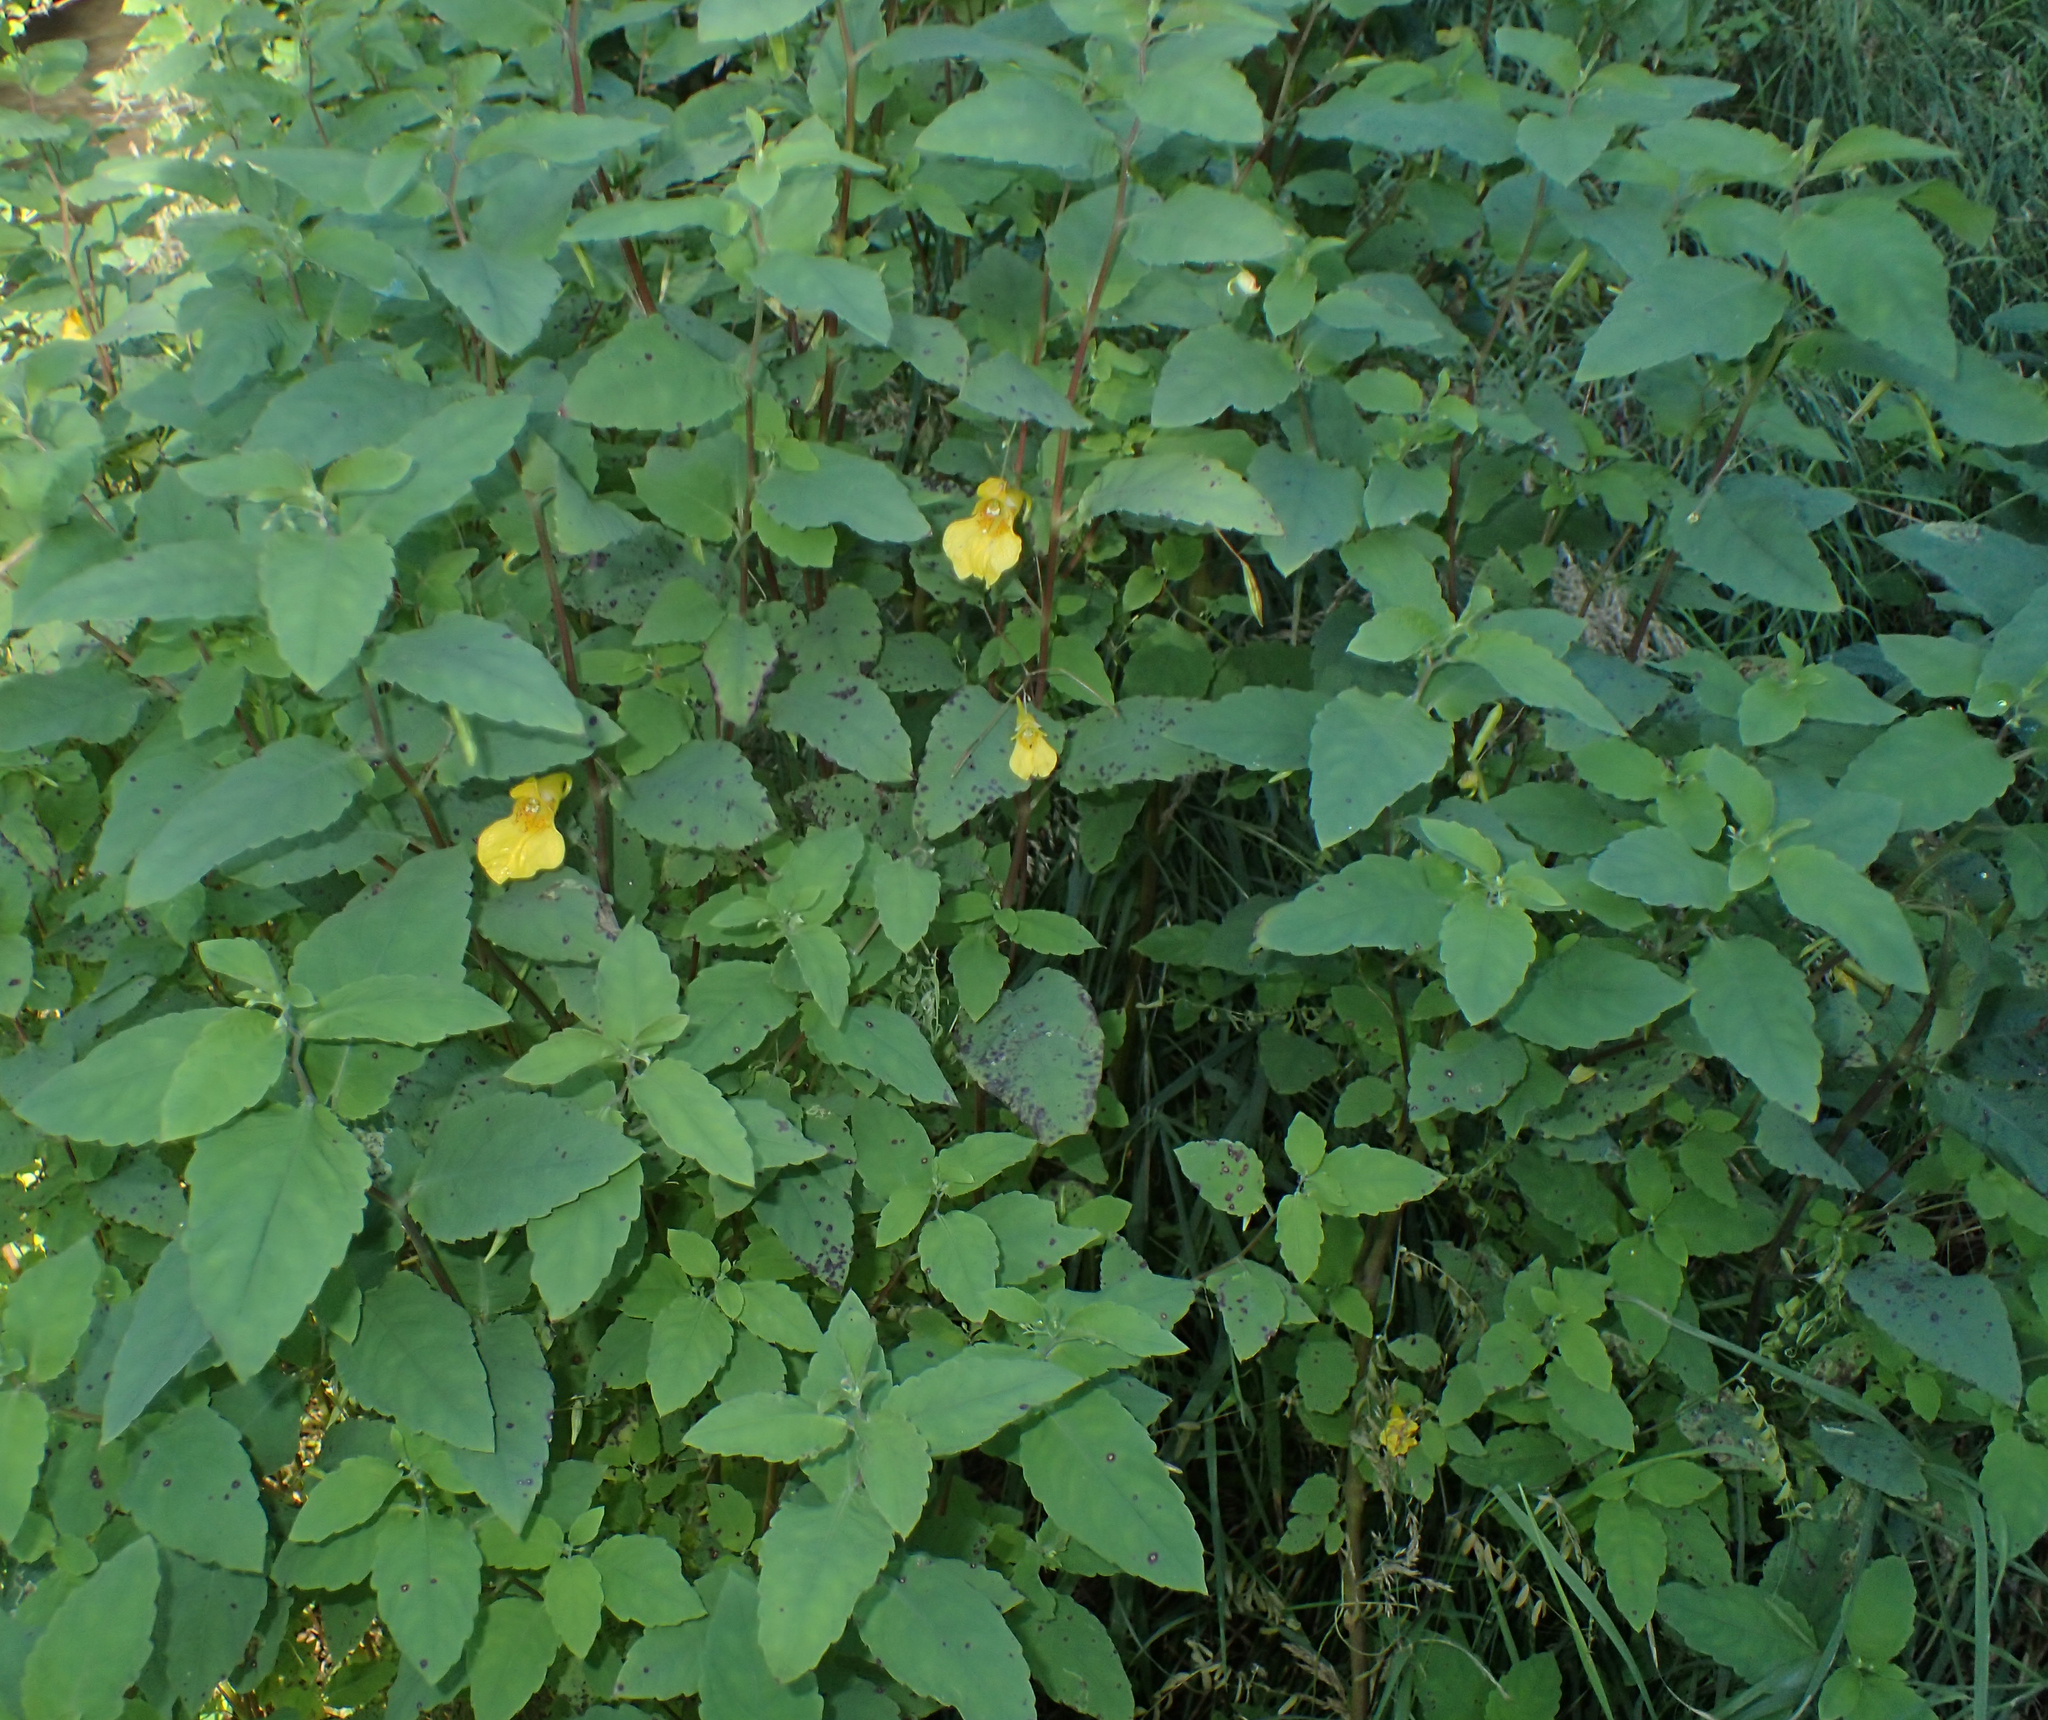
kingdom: Plantae
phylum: Tracheophyta
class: Magnoliopsida
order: Ericales
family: Balsaminaceae
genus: Impatiens
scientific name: Impatiens noli-tangere
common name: Touch-me-not balsam
